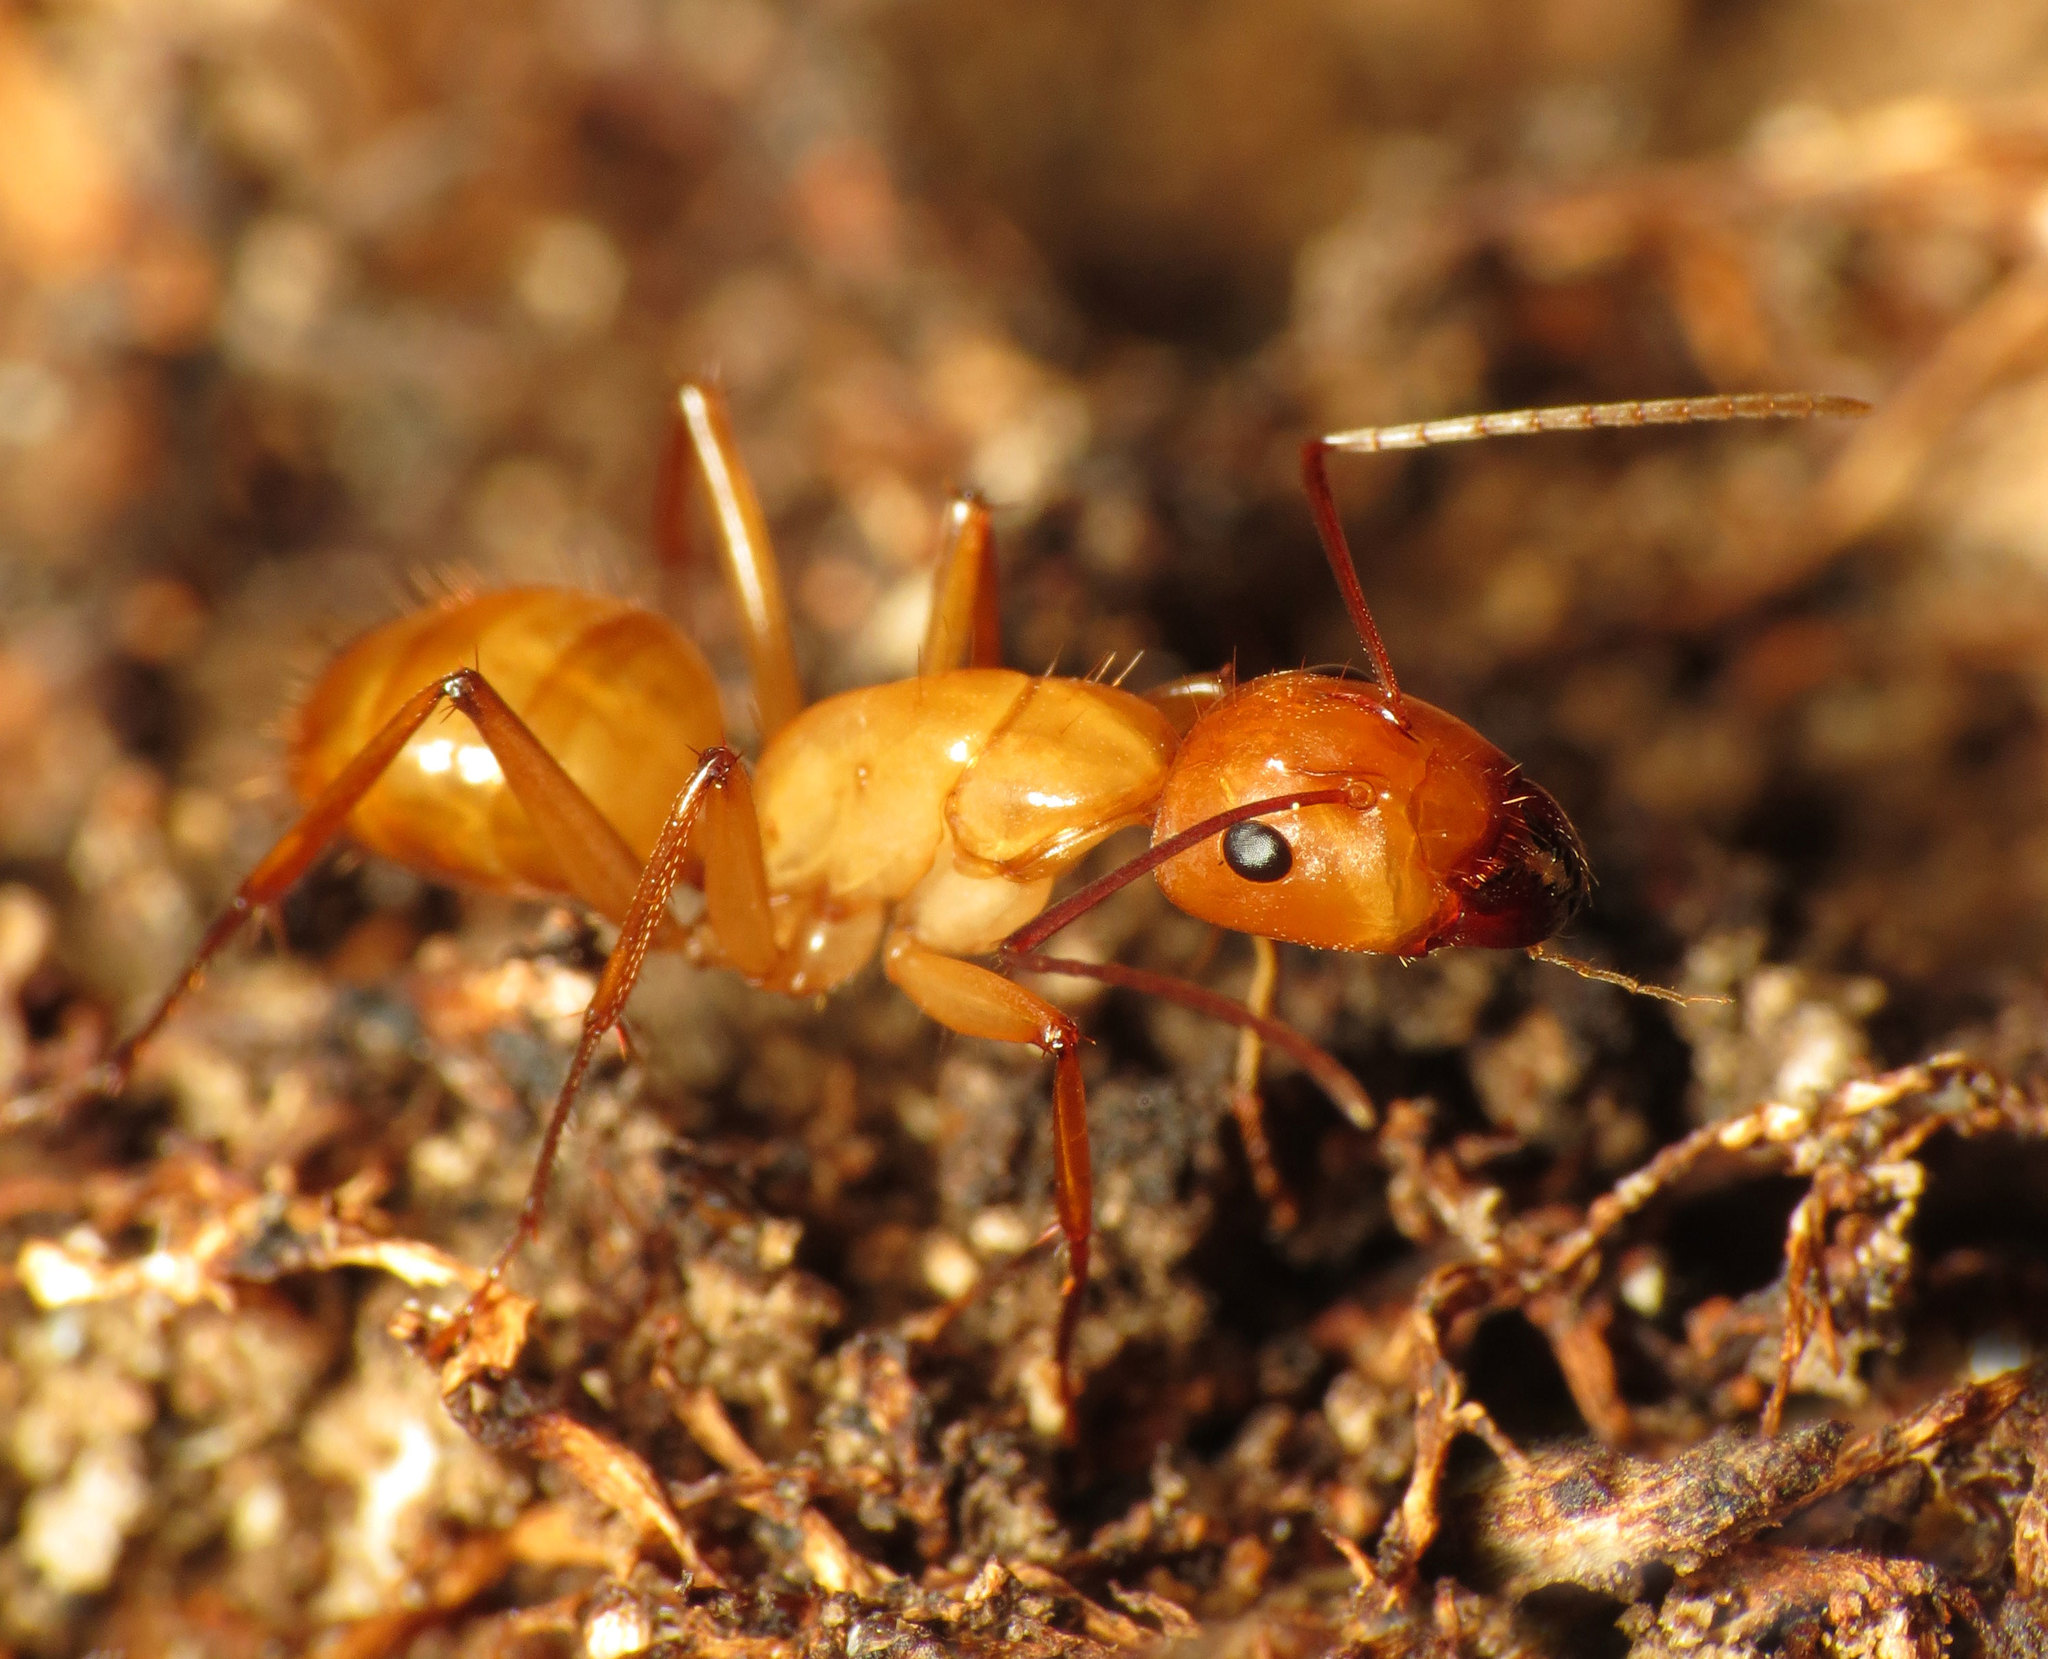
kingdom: Animalia
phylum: Arthropoda
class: Insecta
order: Hymenoptera
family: Formicidae
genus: Camponotus
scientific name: Camponotus castaneus
